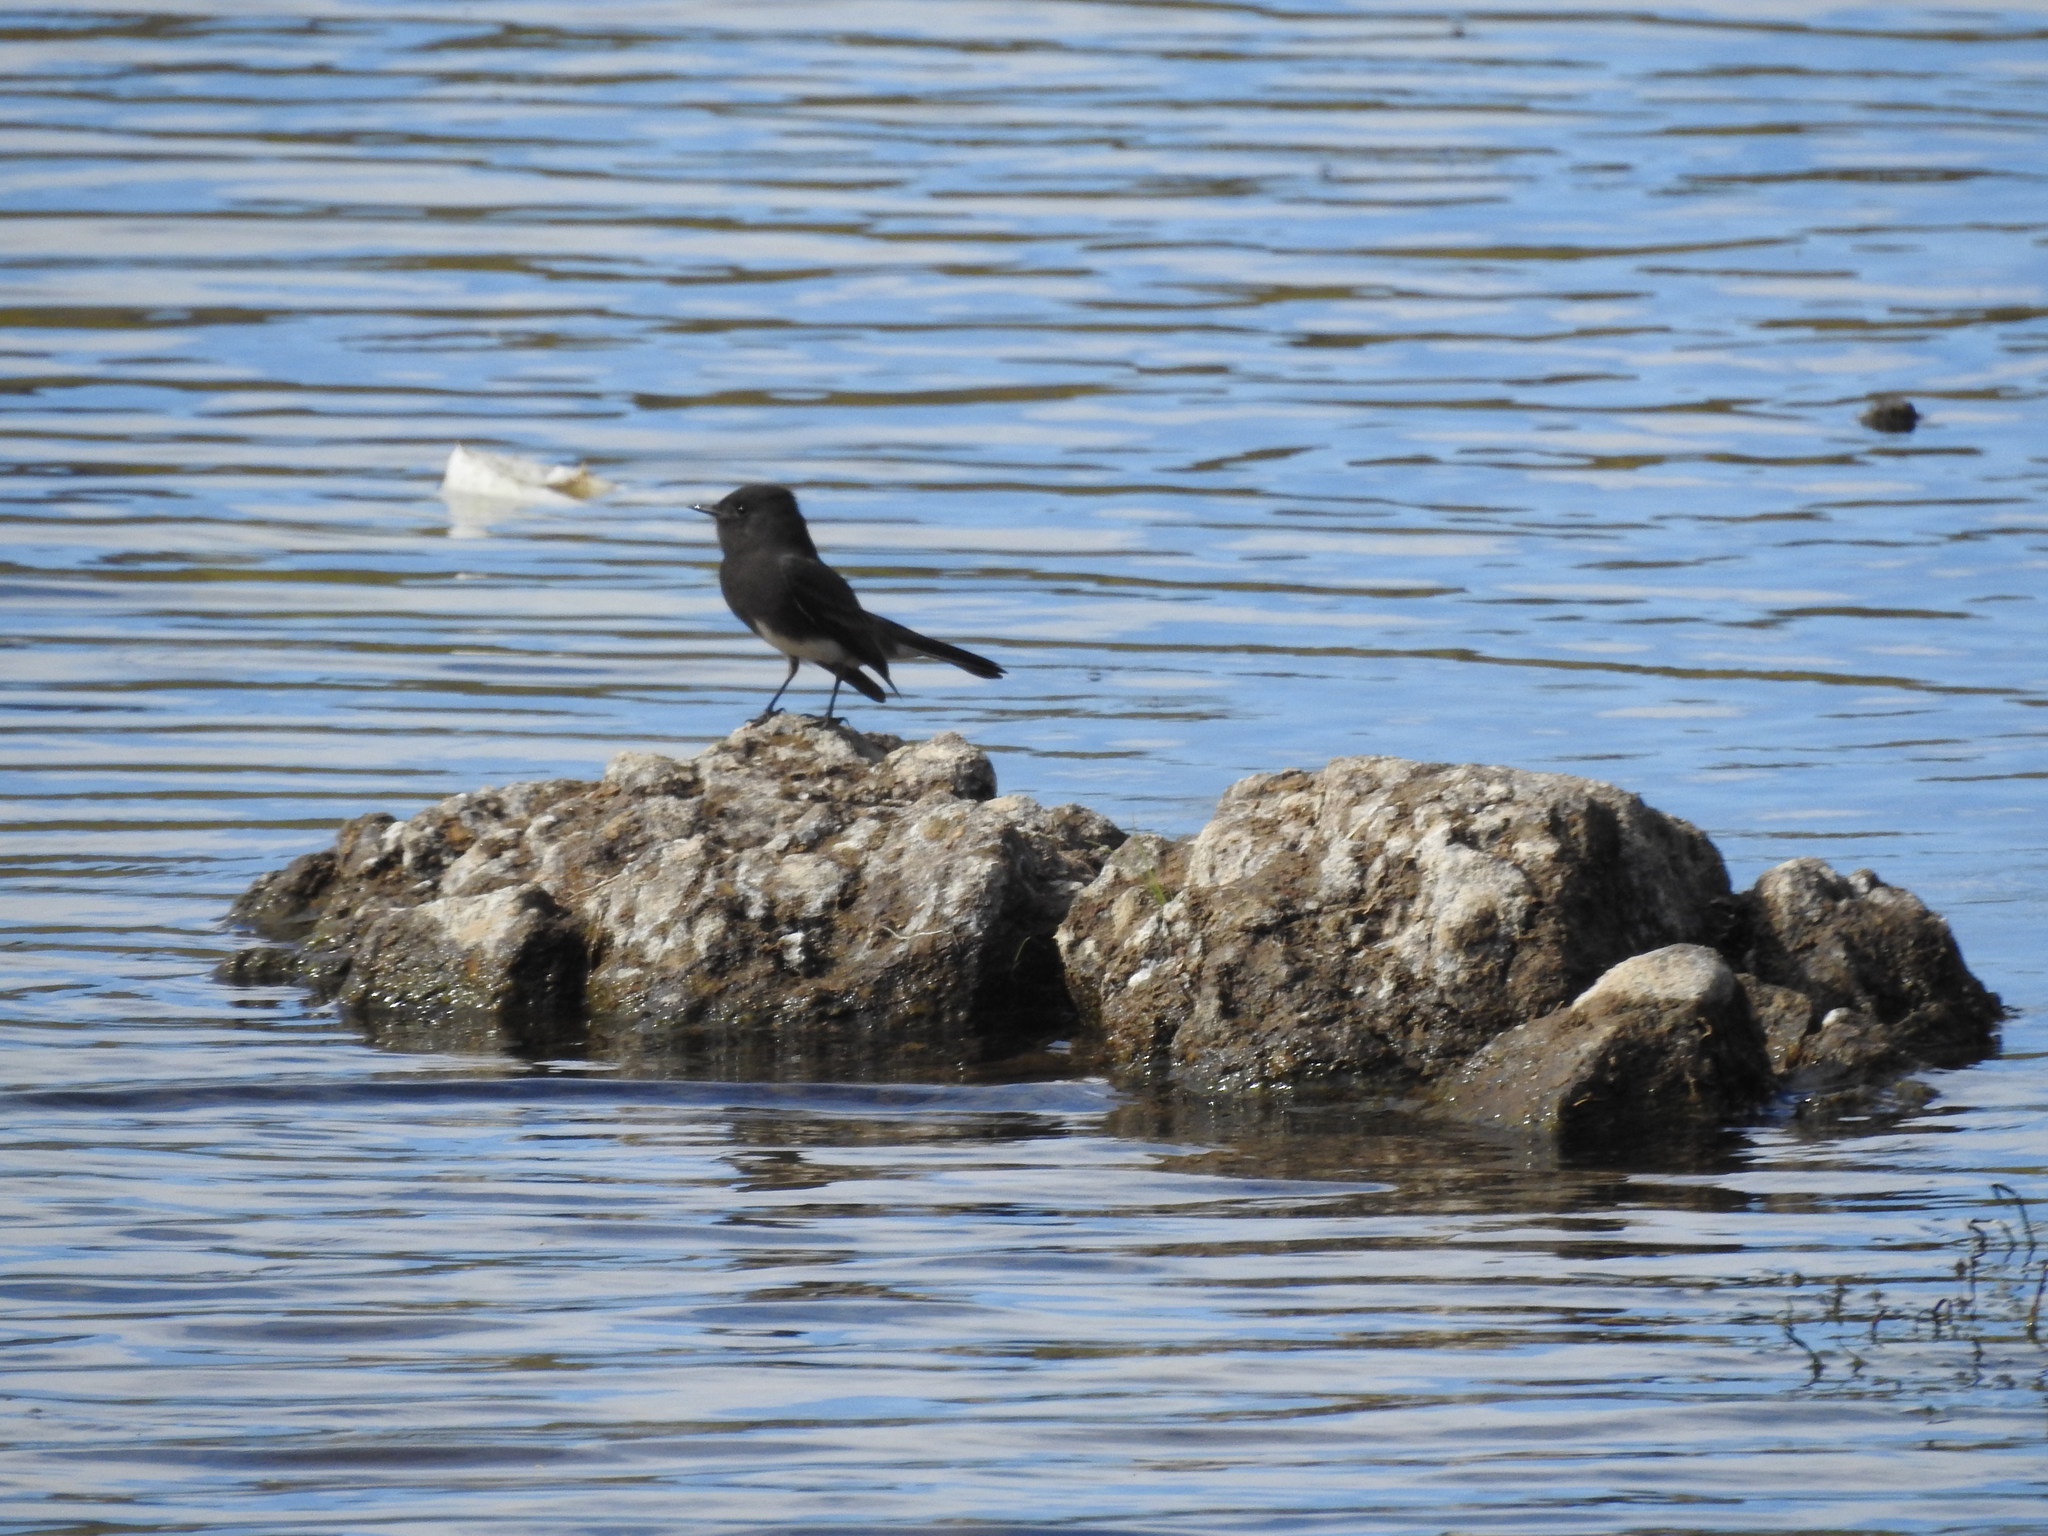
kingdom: Animalia
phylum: Chordata
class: Aves
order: Passeriformes
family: Tyrannidae
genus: Sayornis
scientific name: Sayornis nigricans
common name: Black phoebe
